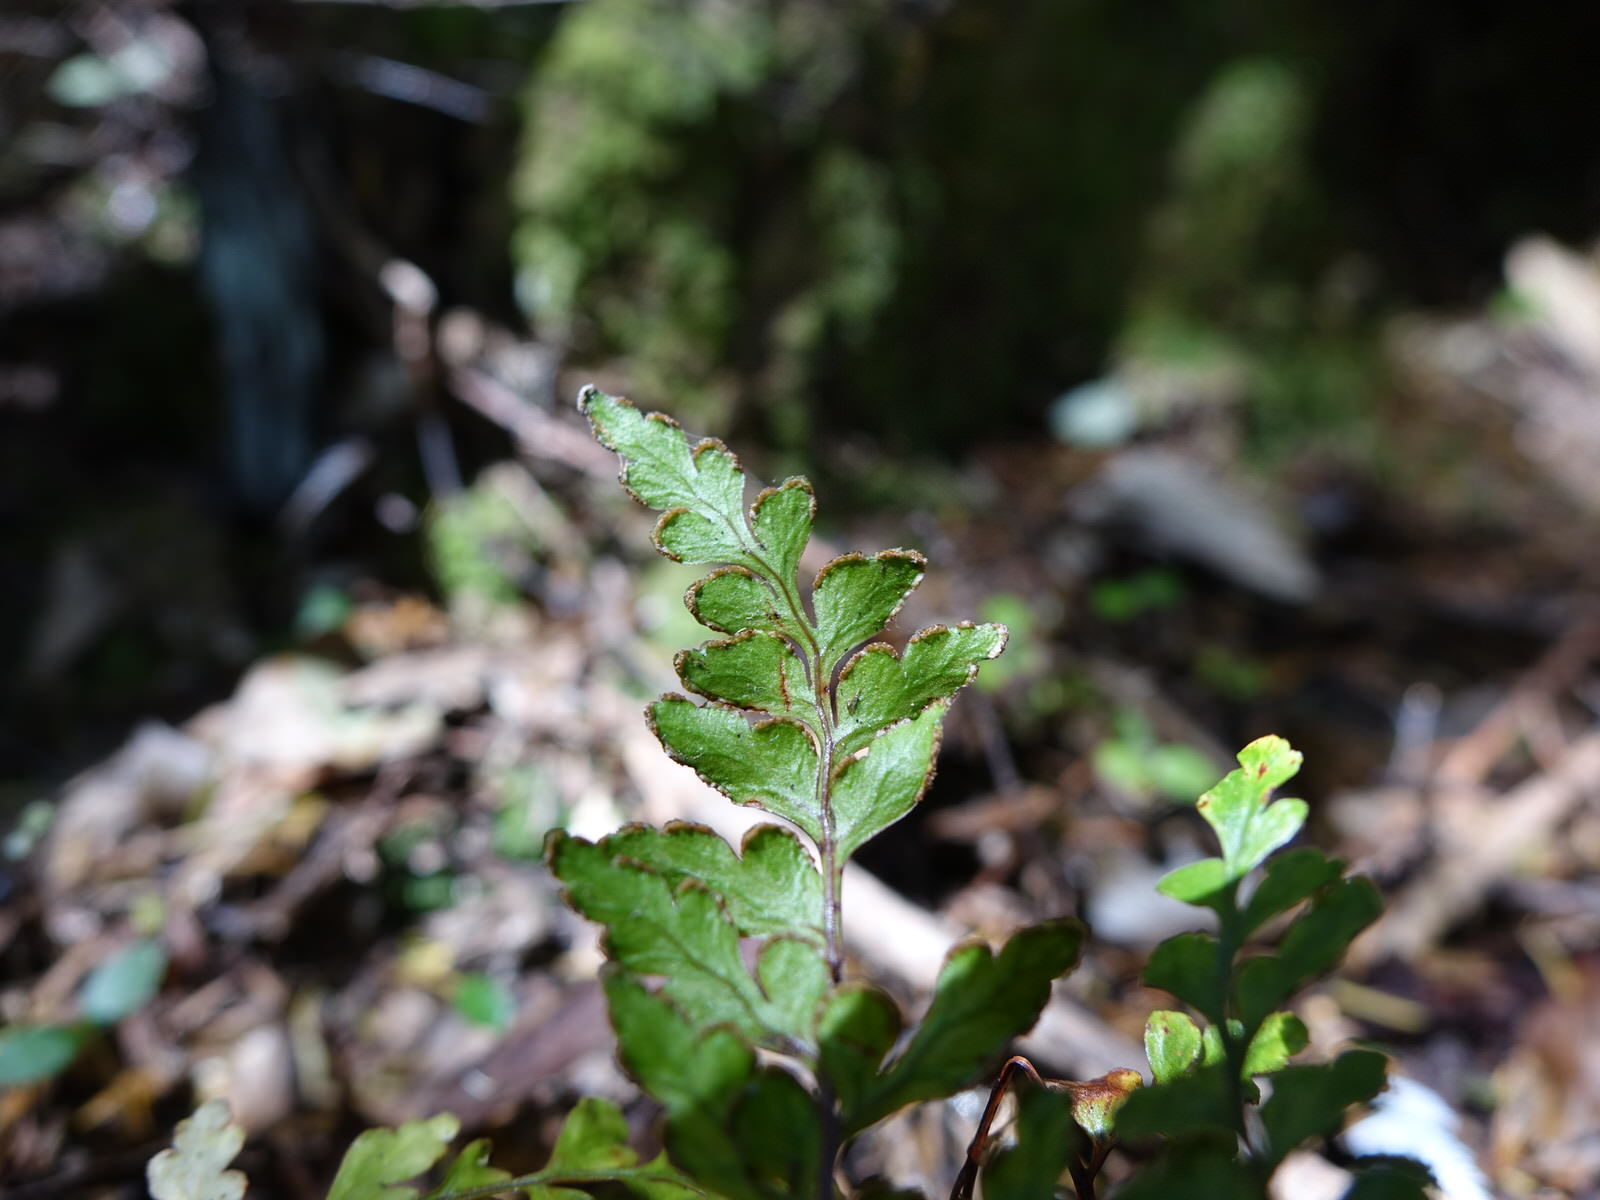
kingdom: Plantae
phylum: Tracheophyta
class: Polypodiopsida
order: Polypodiales
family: Lindsaeaceae
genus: Lindsaea
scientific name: Lindsaea trichomanoides
